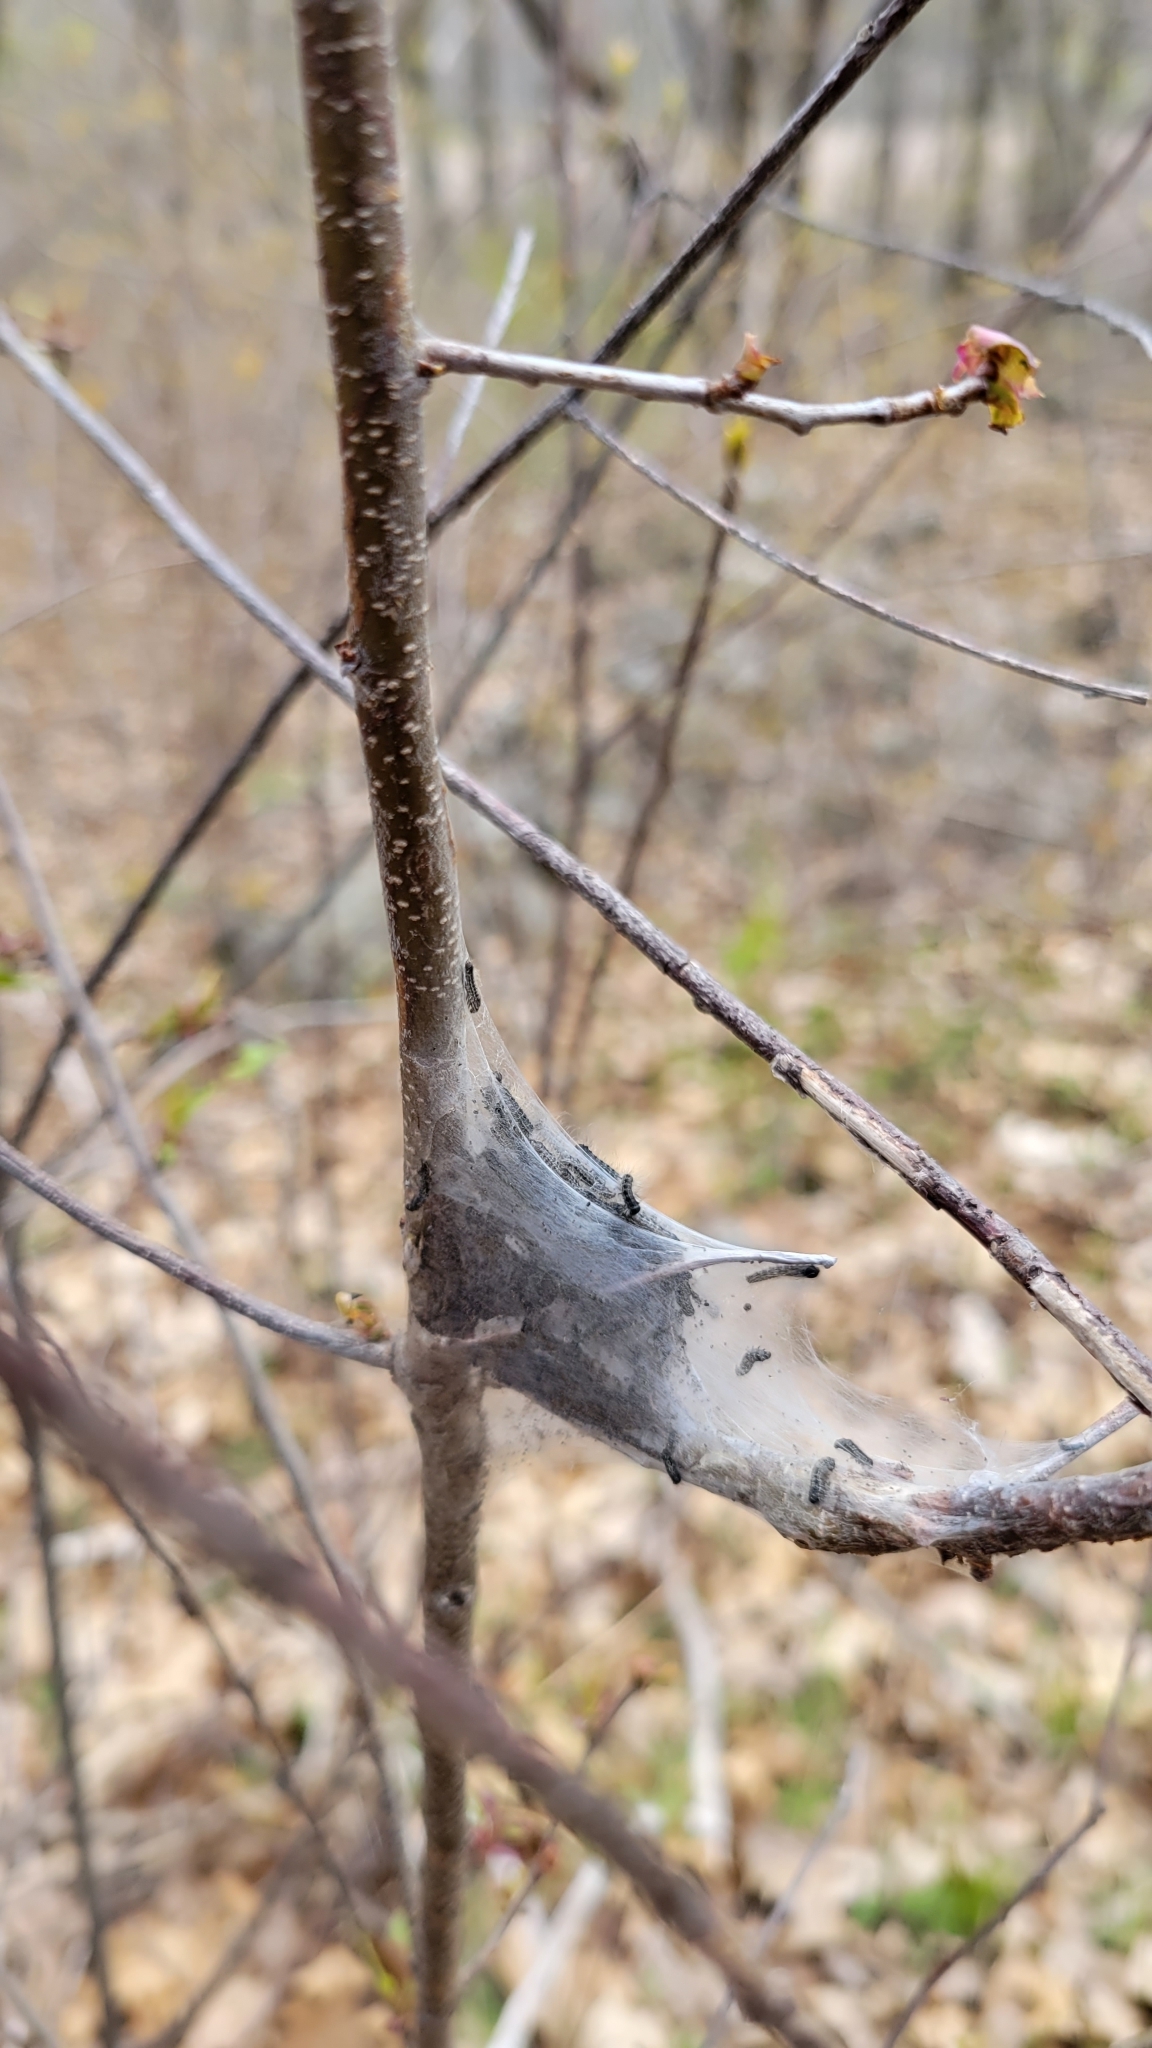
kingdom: Animalia
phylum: Arthropoda
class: Insecta
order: Lepidoptera
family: Lasiocampidae
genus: Malacosoma
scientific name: Malacosoma americana
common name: Eastern tent caterpillar moth
